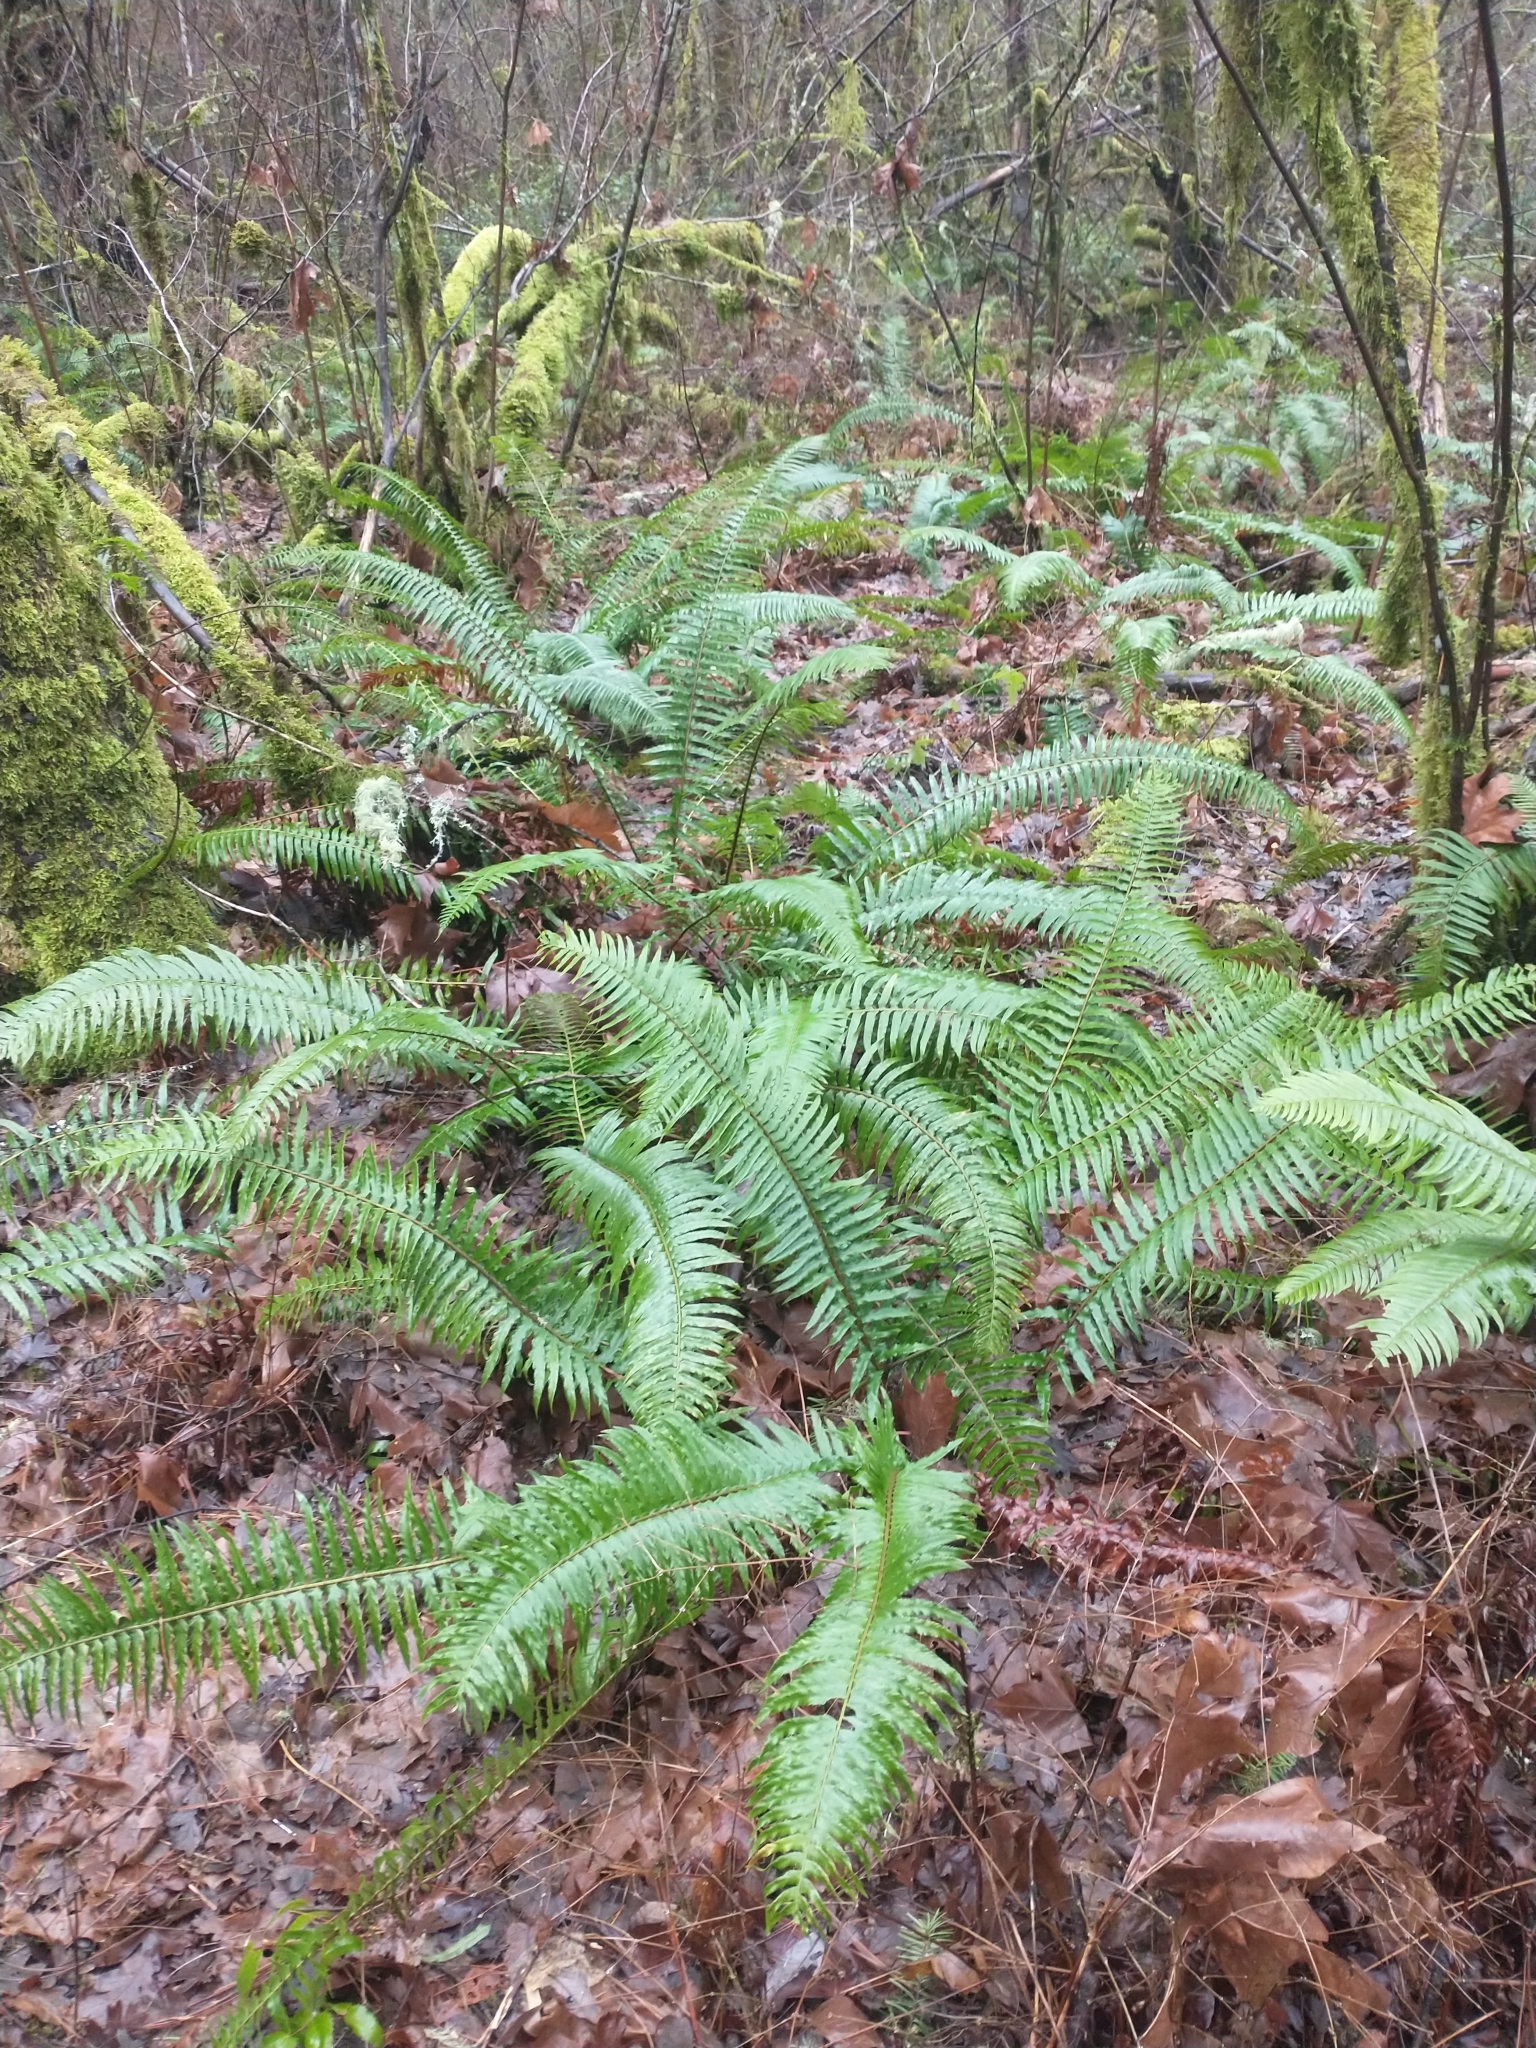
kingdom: Plantae
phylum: Tracheophyta
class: Polypodiopsida
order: Polypodiales
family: Dryopteridaceae
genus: Polystichum
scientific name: Polystichum munitum
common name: Western sword-fern
